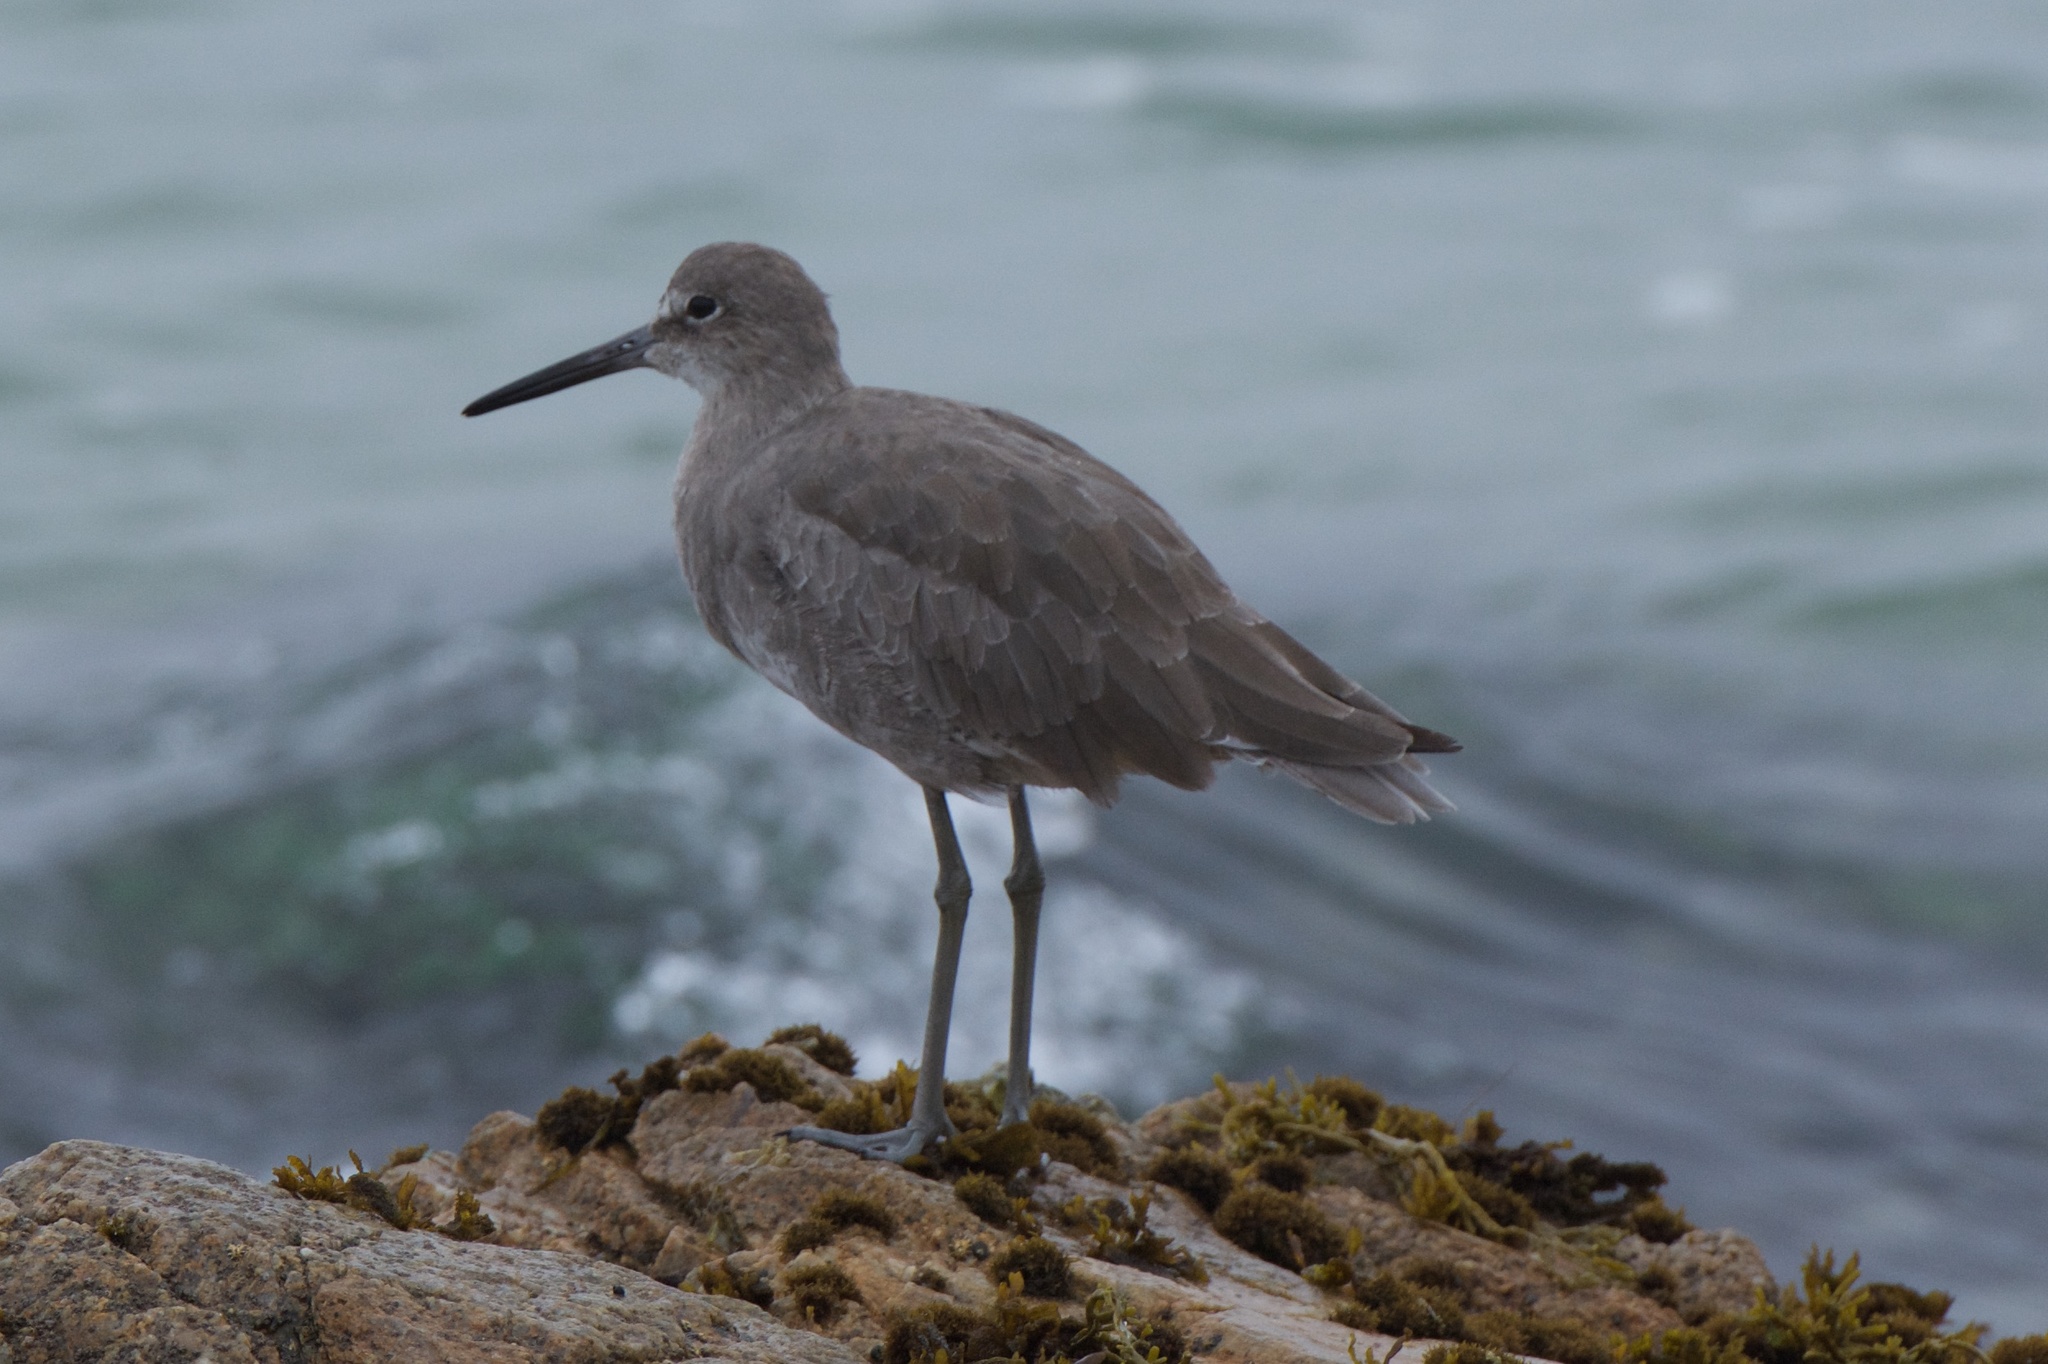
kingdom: Animalia
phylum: Chordata
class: Aves
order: Charadriiformes
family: Scolopacidae
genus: Tringa
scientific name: Tringa semipalmata
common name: Willet
